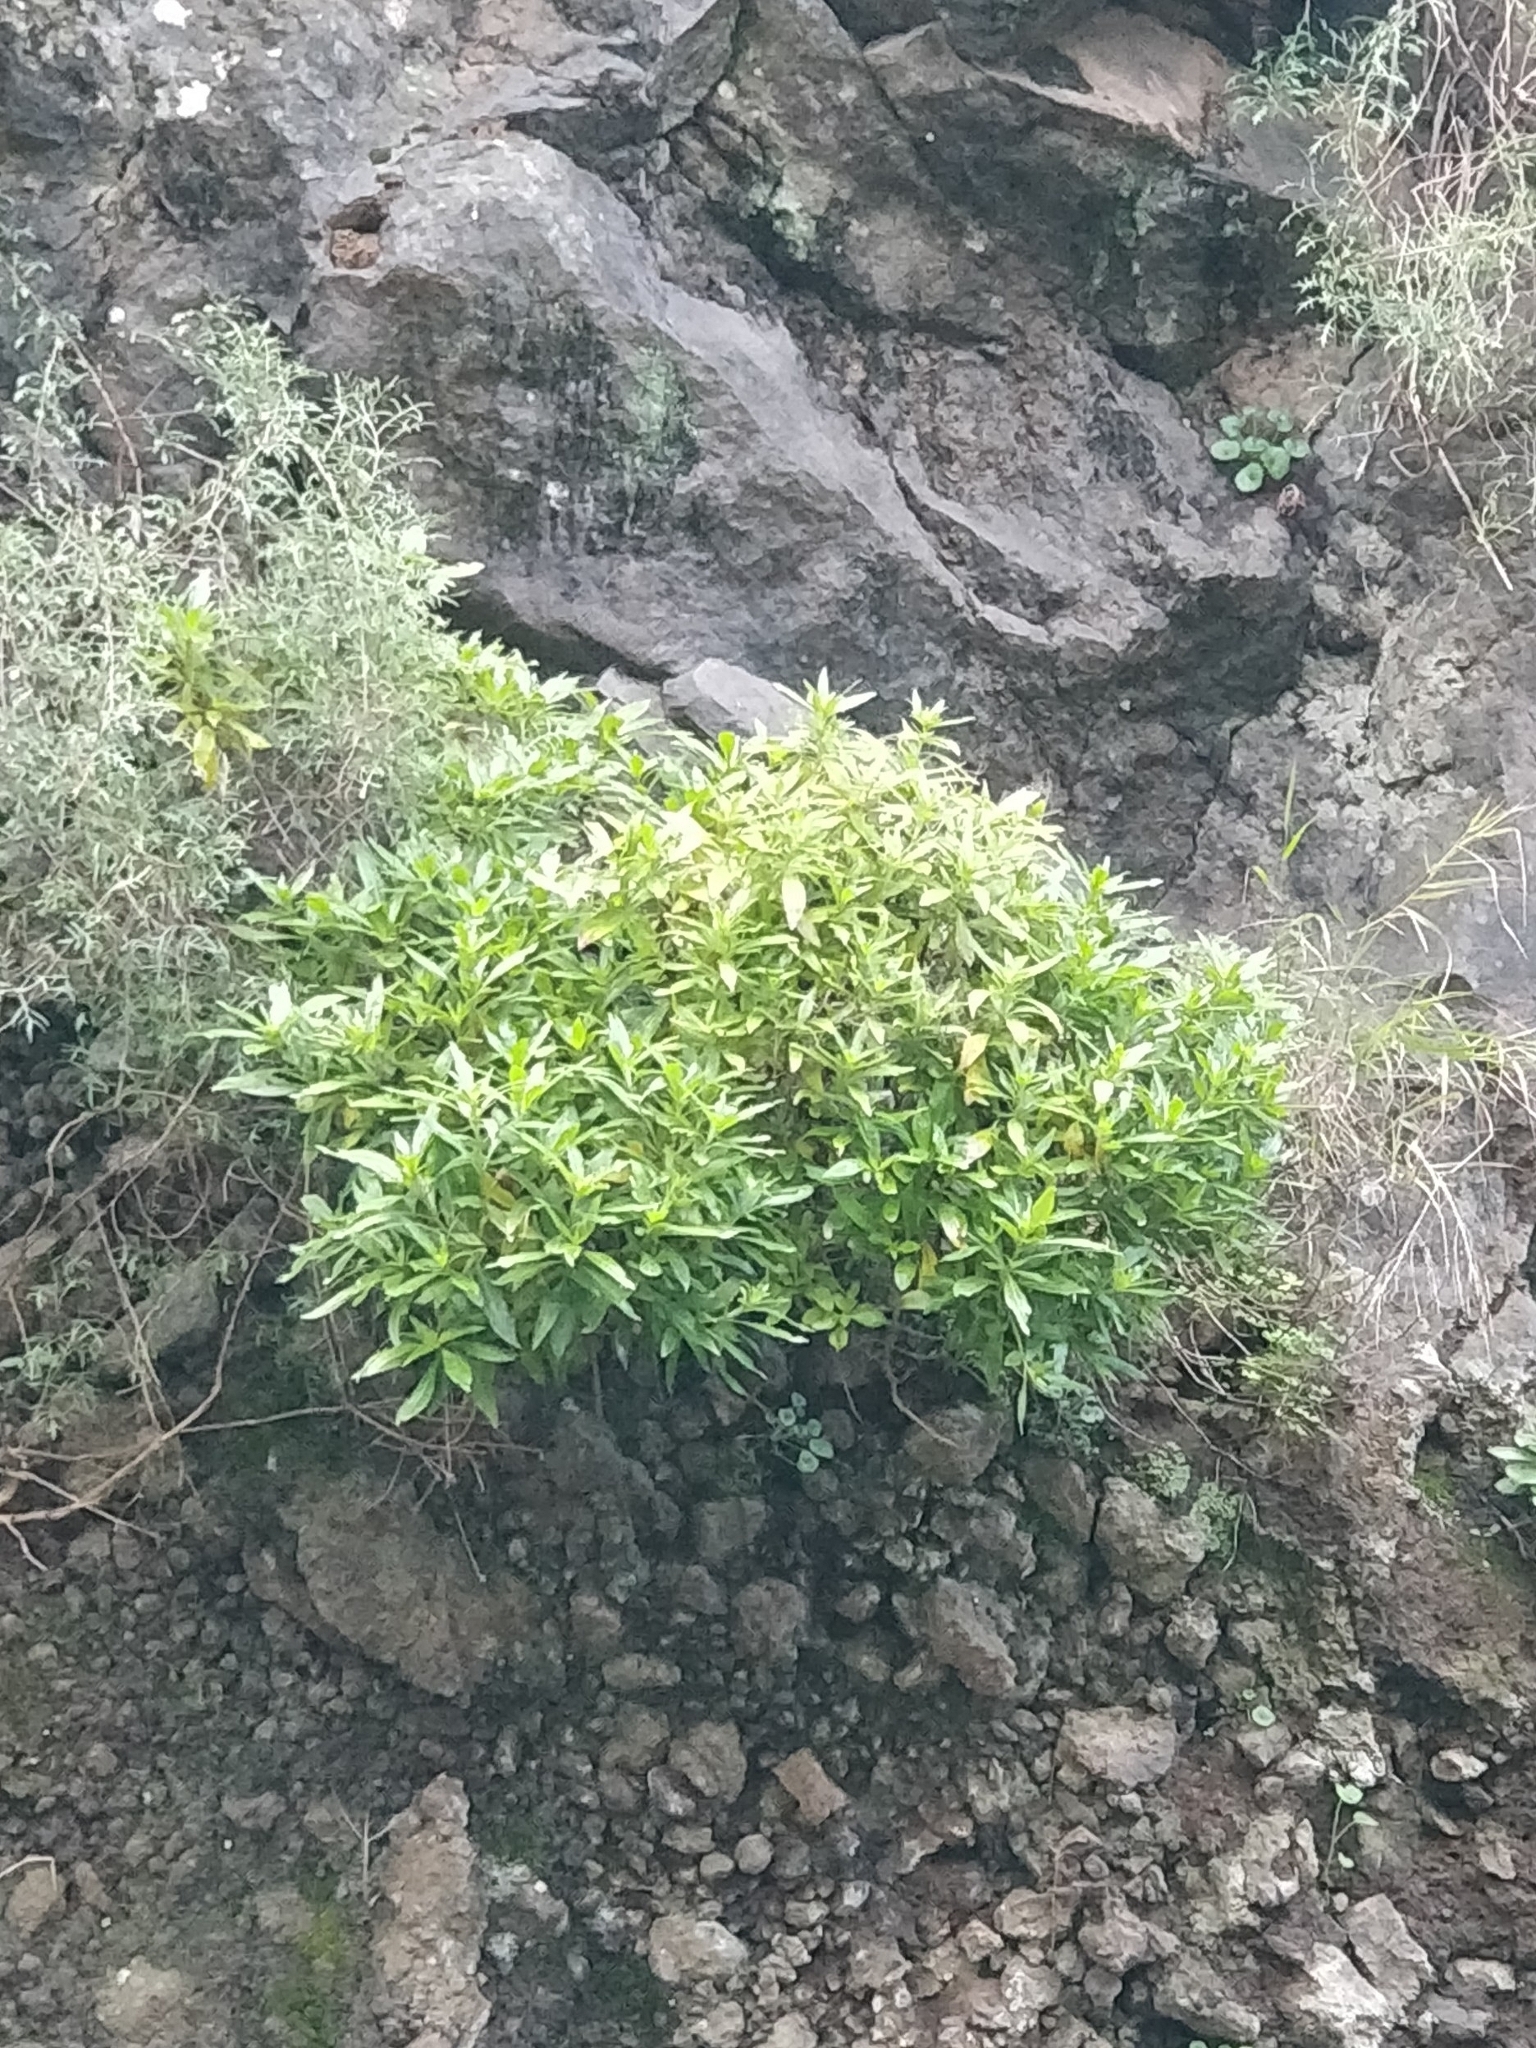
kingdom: Plantae
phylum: Tracheophyta
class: Magnoliopsida
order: Gentianales
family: Rubiaceae
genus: Phyllis
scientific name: Phyllis nobla
